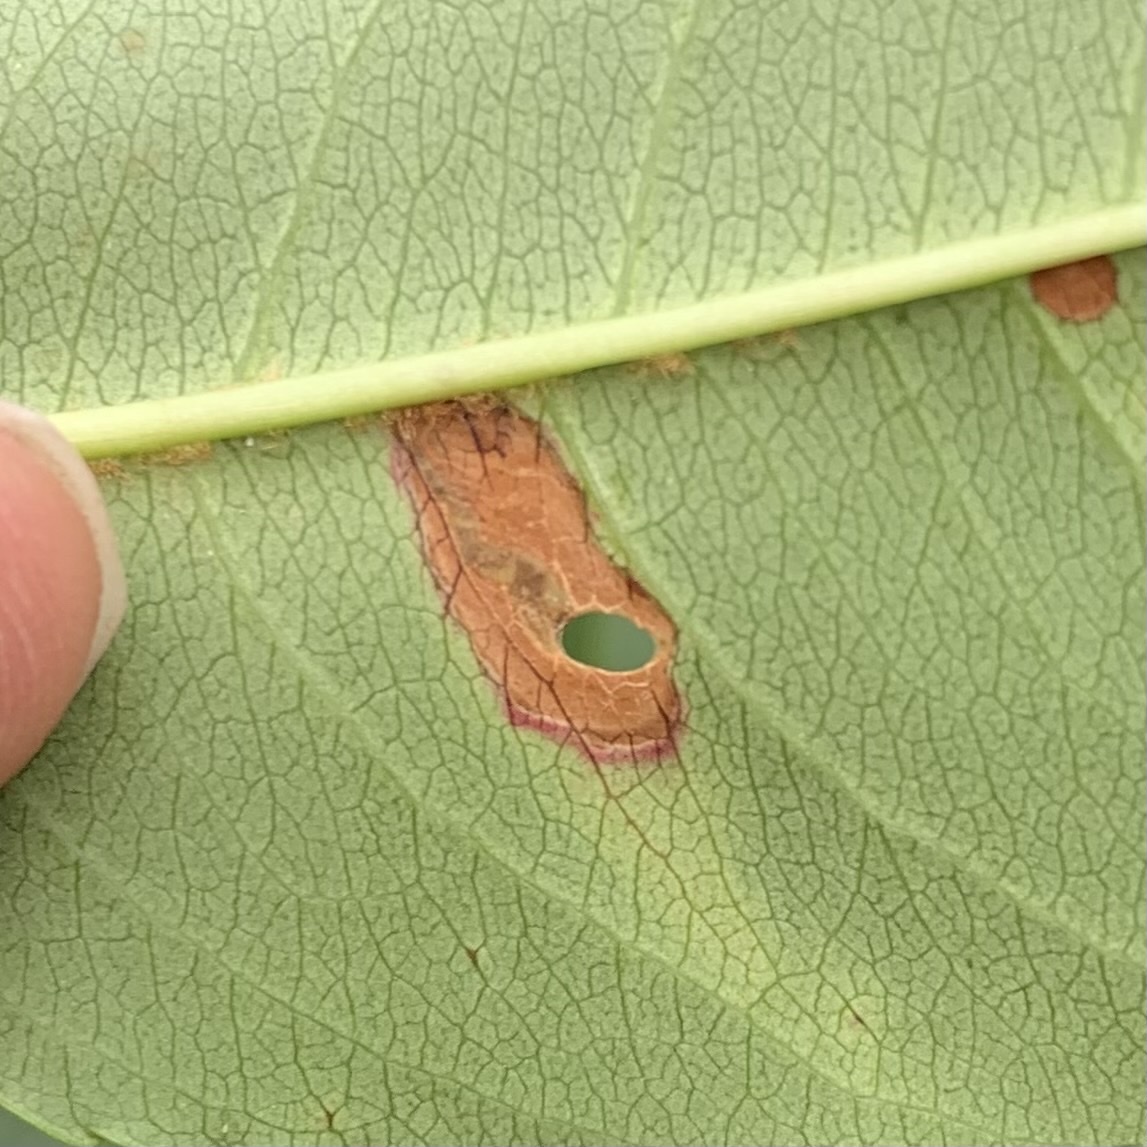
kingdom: Animalia
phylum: Arthropoda
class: Insecta
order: Lepidoptera
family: Heliozelidae
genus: Coptodisca
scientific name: Coptodisca splendoriferella
